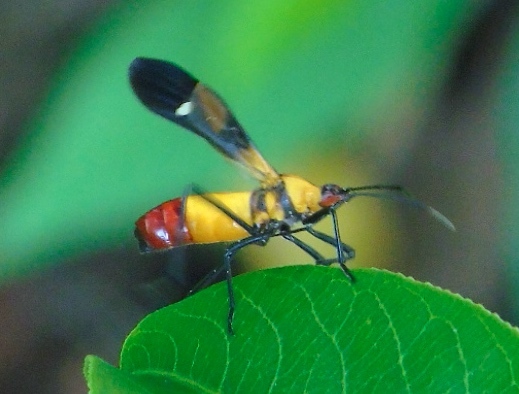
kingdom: Animalia
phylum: Arthropoda
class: Insecta
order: Hemiptera
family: Lygaeidae
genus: Oncopeltus
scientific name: Oncopeltus spectabilis
